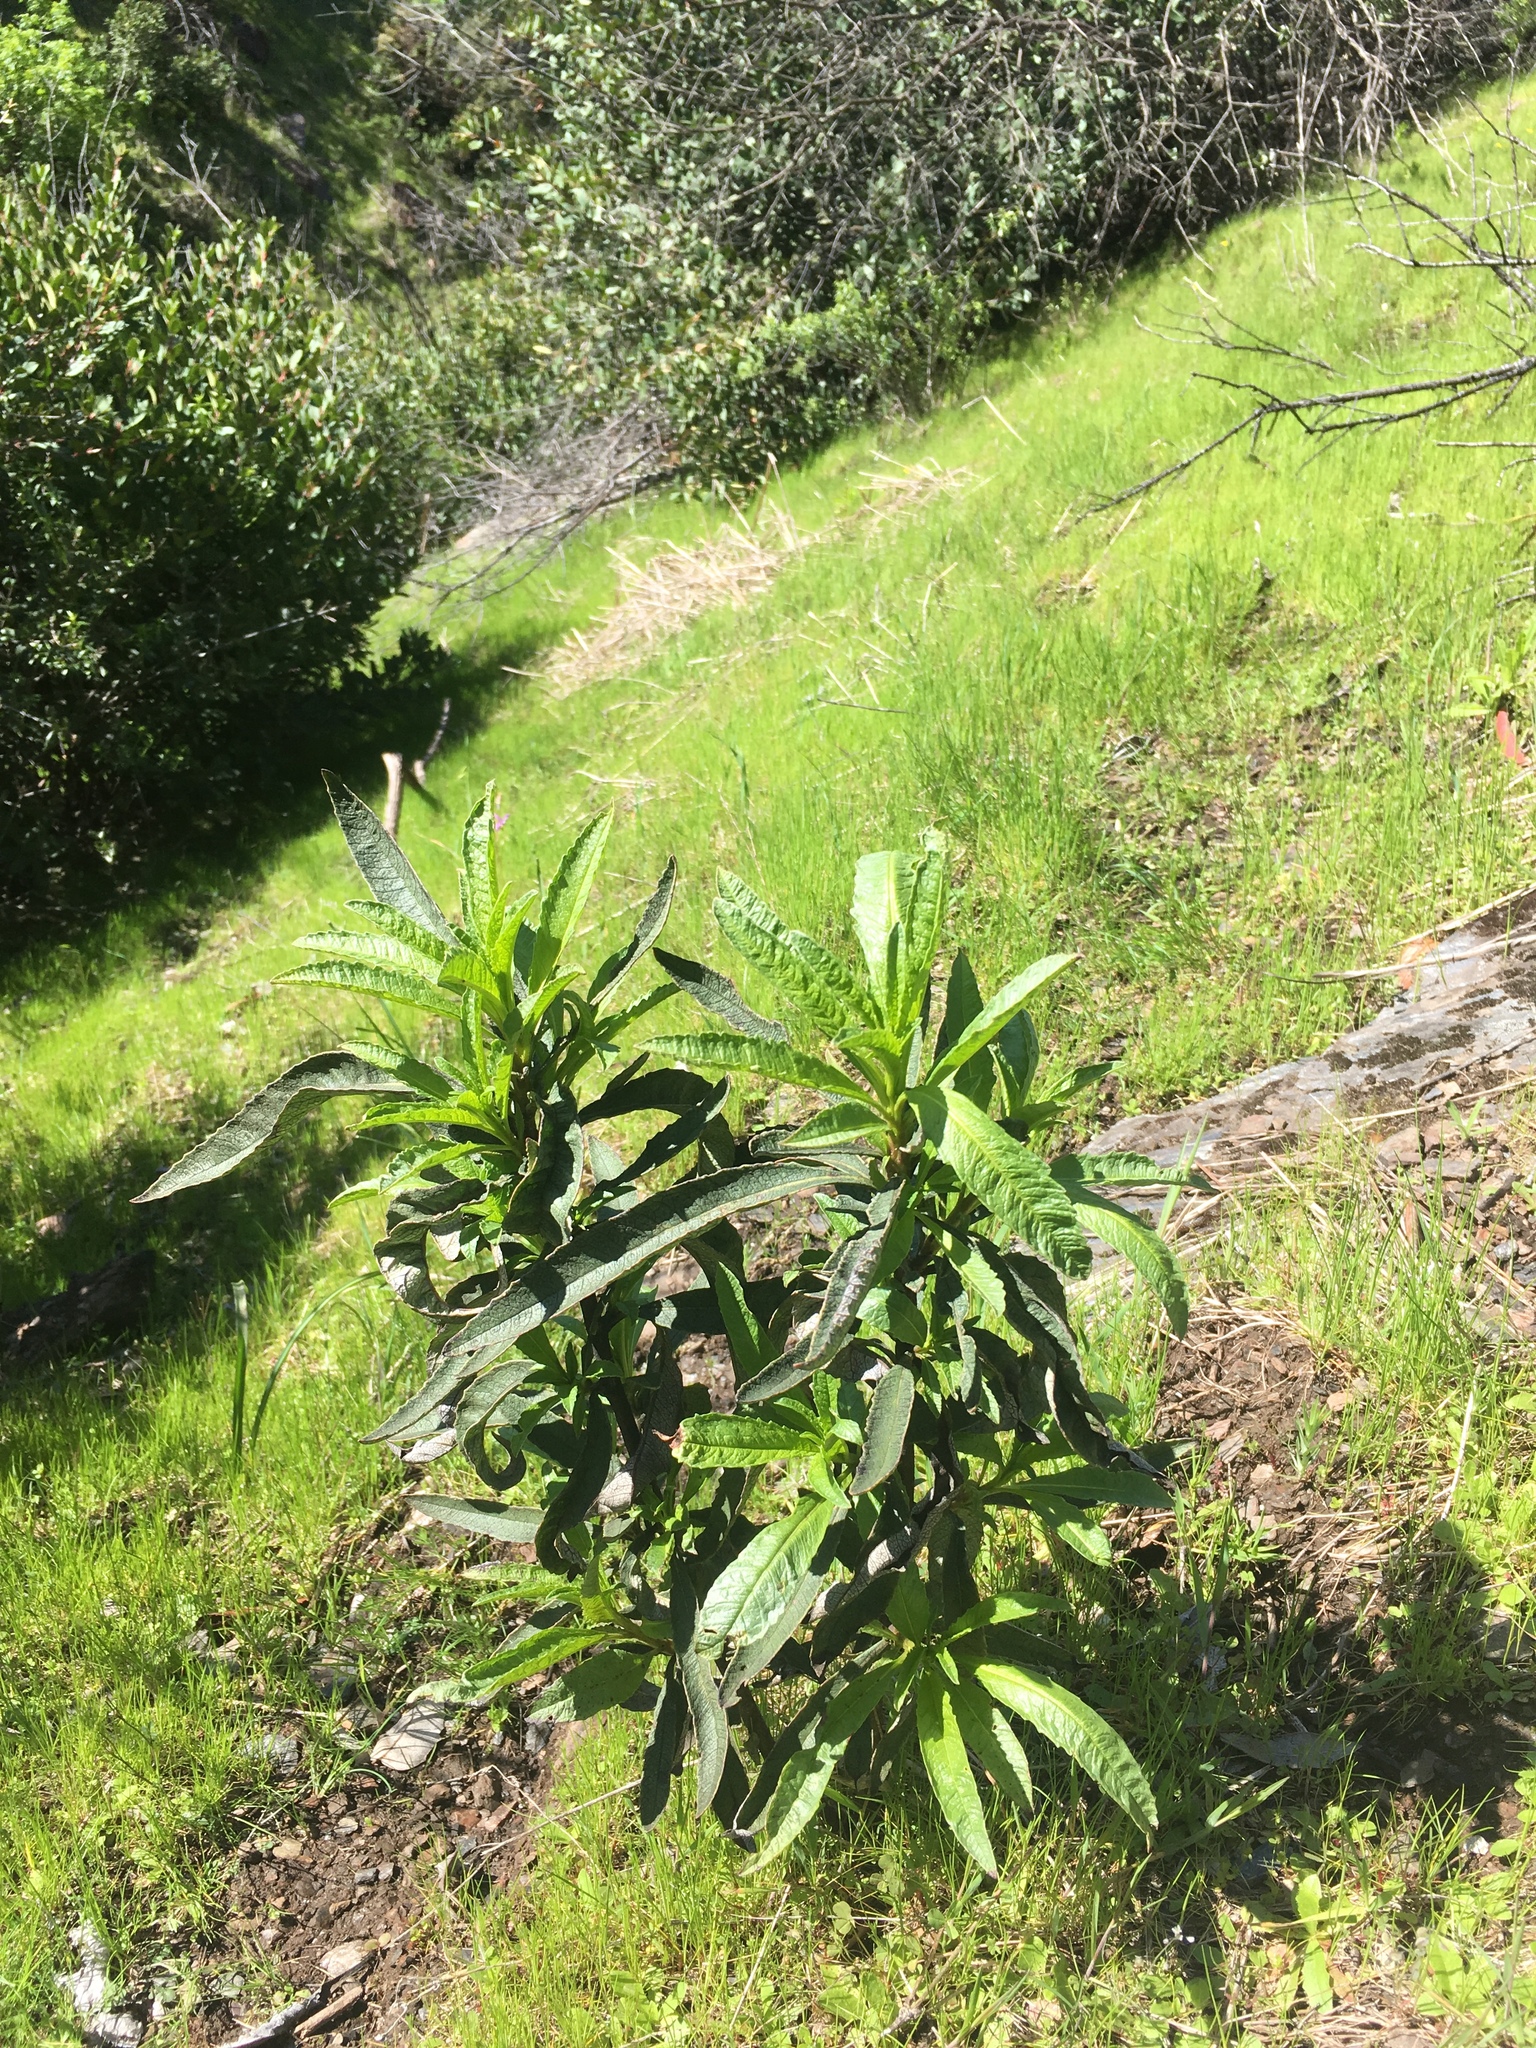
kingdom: Plantae
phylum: Tracheophyta
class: Magnoliopsida
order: Boraginales
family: Namaceae
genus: Eriodictyon
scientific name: Eriodictyon californicum
